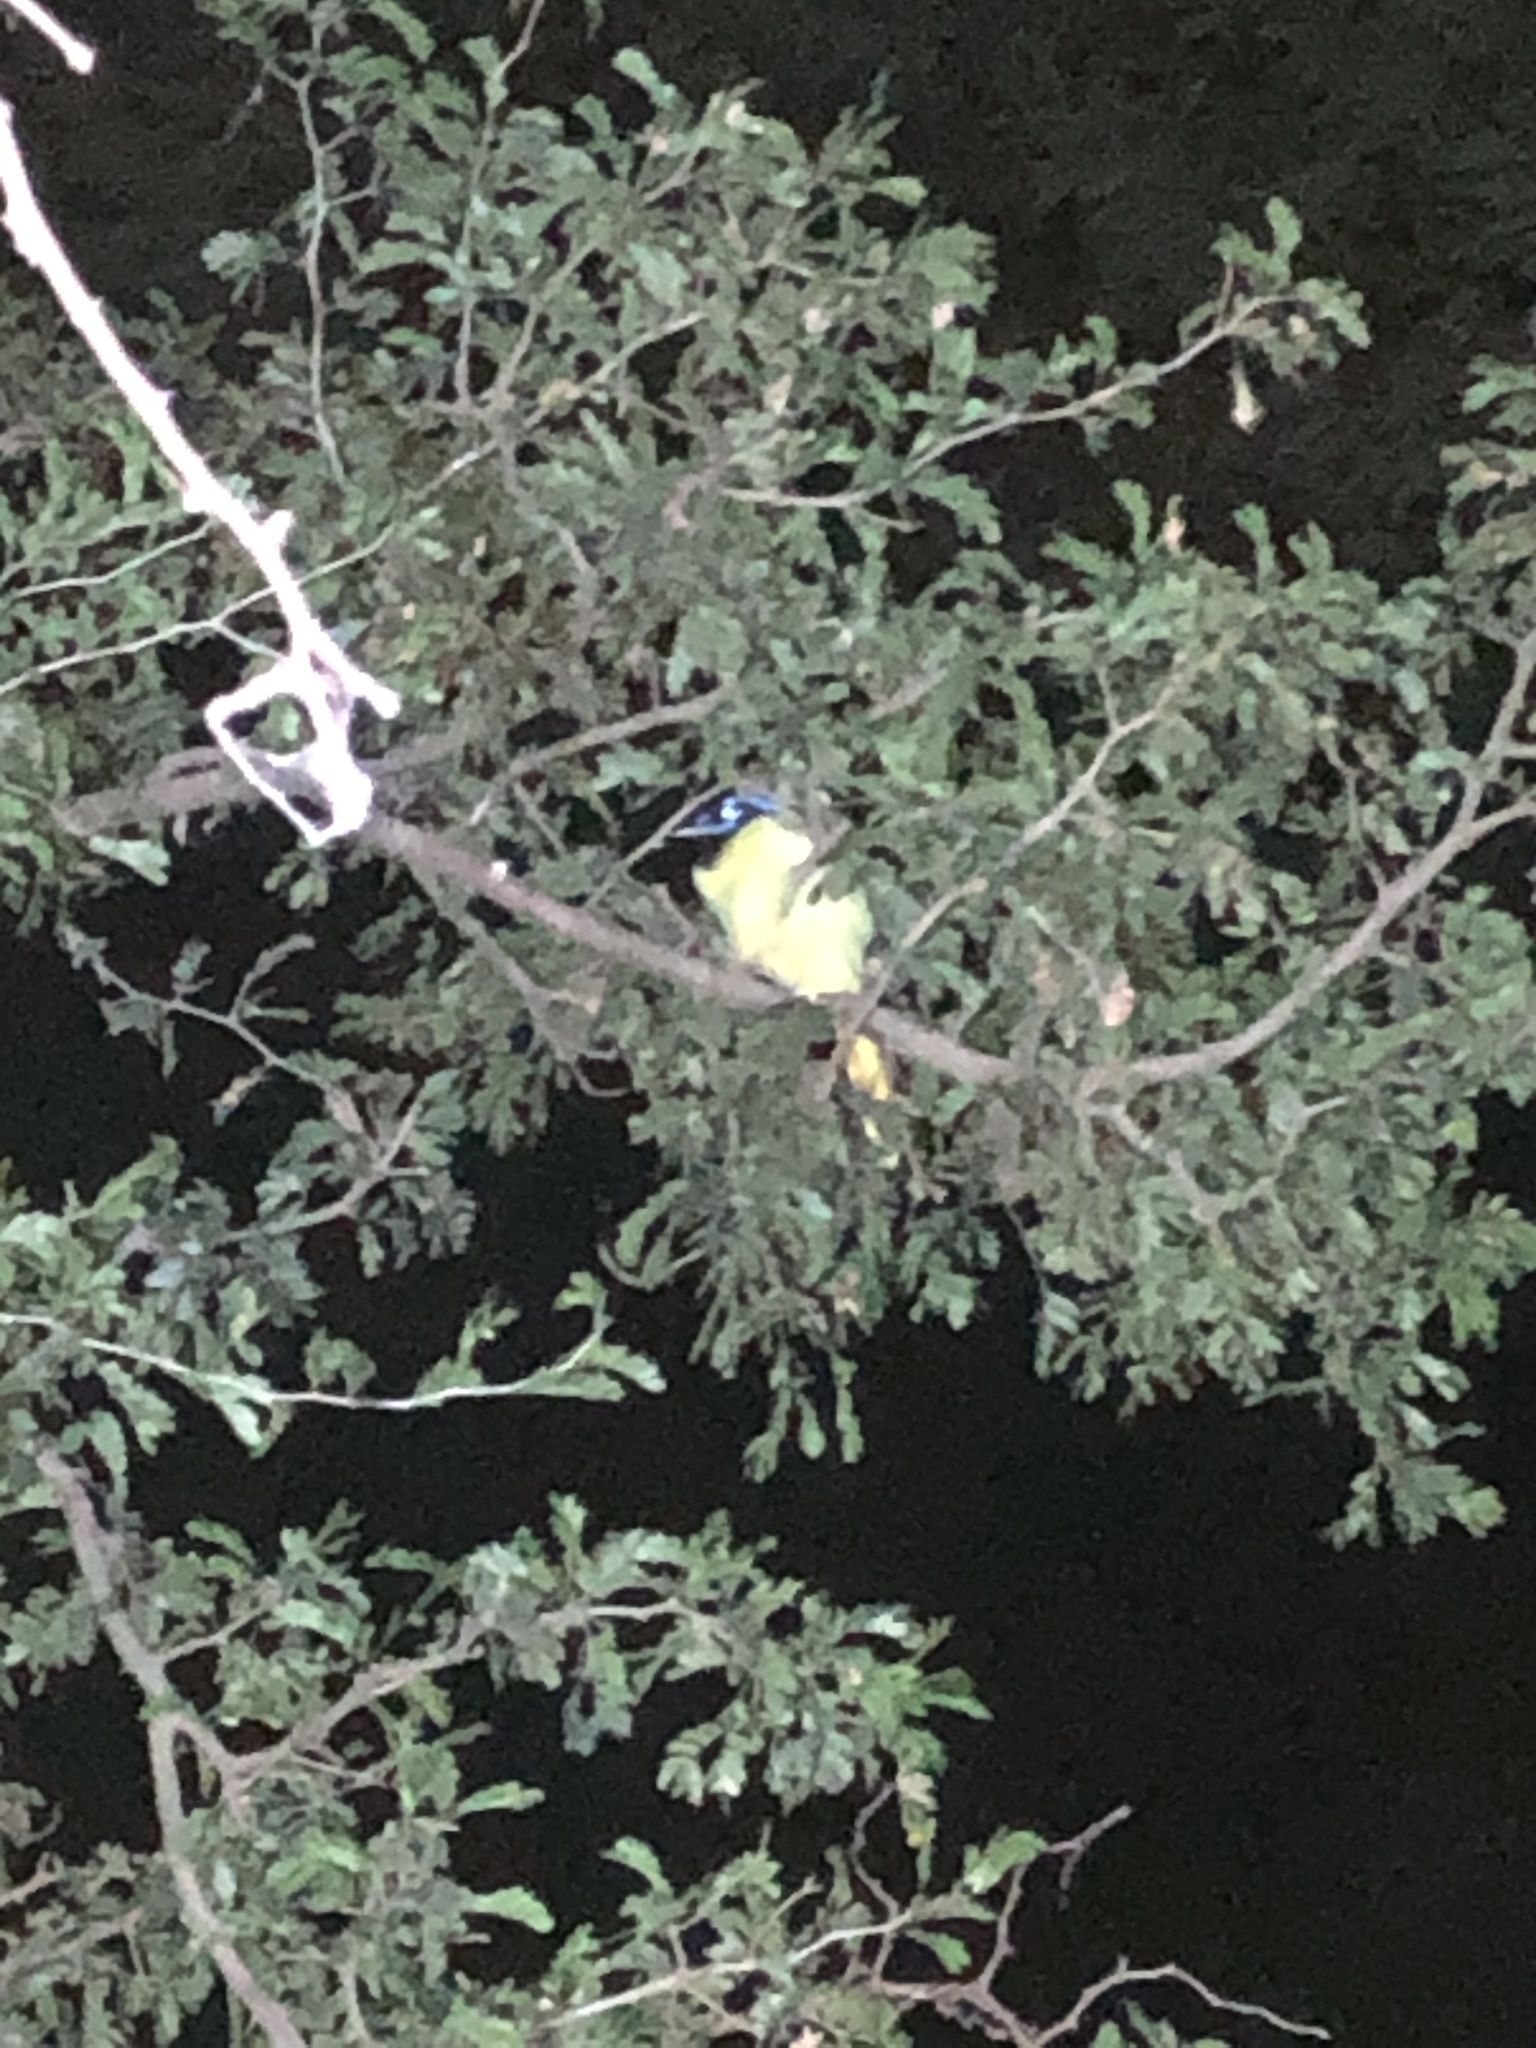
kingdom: Animalia
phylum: Chordata
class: Aves
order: Passeriformes
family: Corvidae
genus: Cyanocorax
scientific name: Cyanocorax yncas
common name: Green jay
